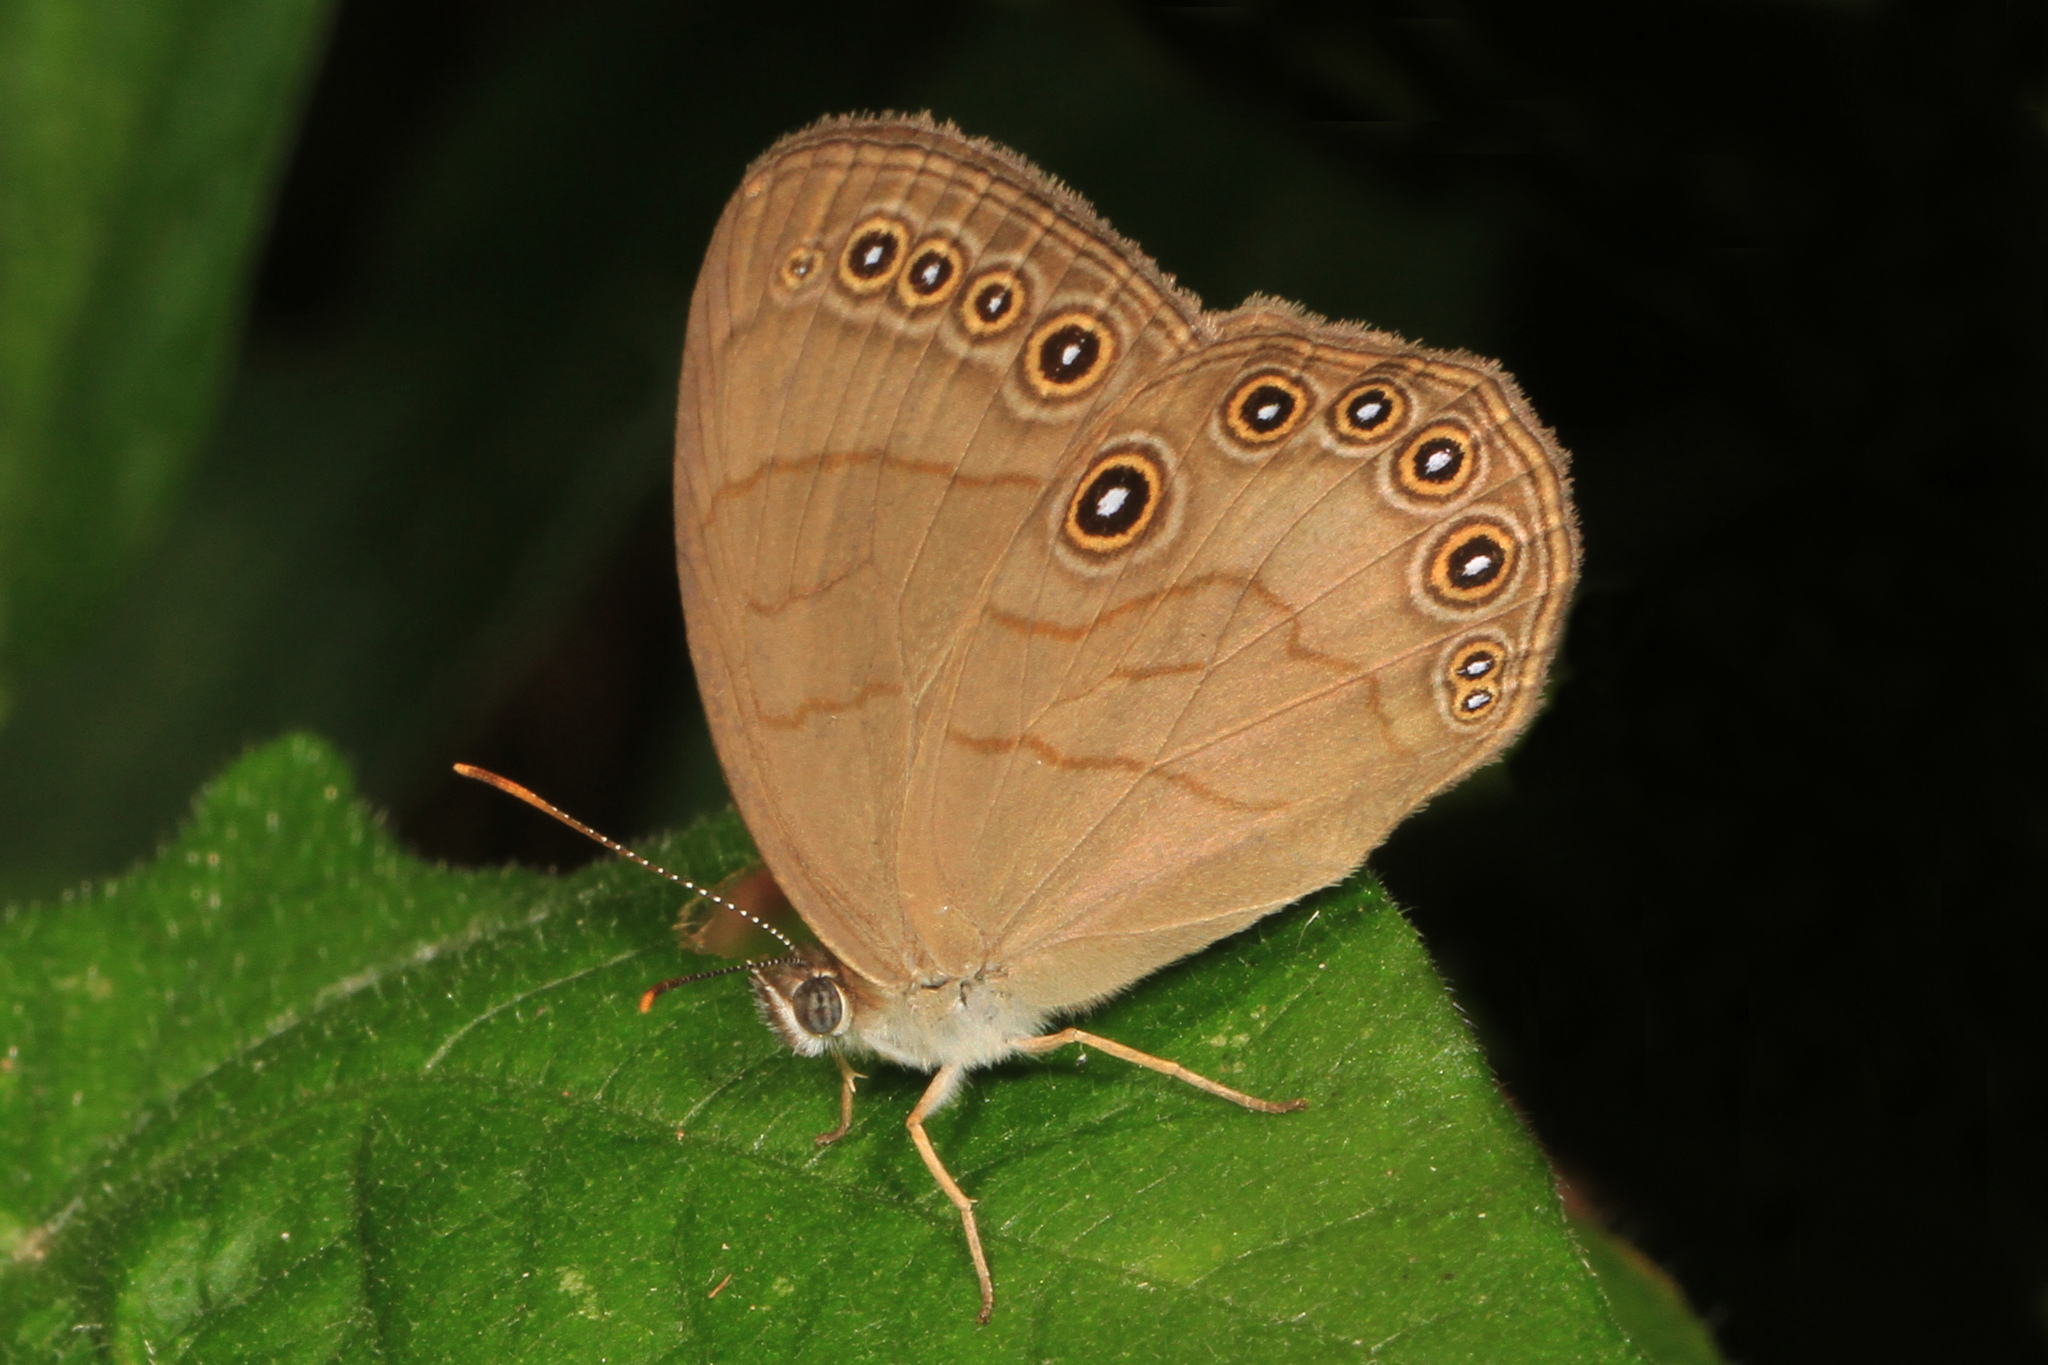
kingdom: Animalia
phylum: Arthropoda
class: Insecta
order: Lepidoptera
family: Nymphalidae
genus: Lethe
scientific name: Lethe eurydice
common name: Eyed brown
